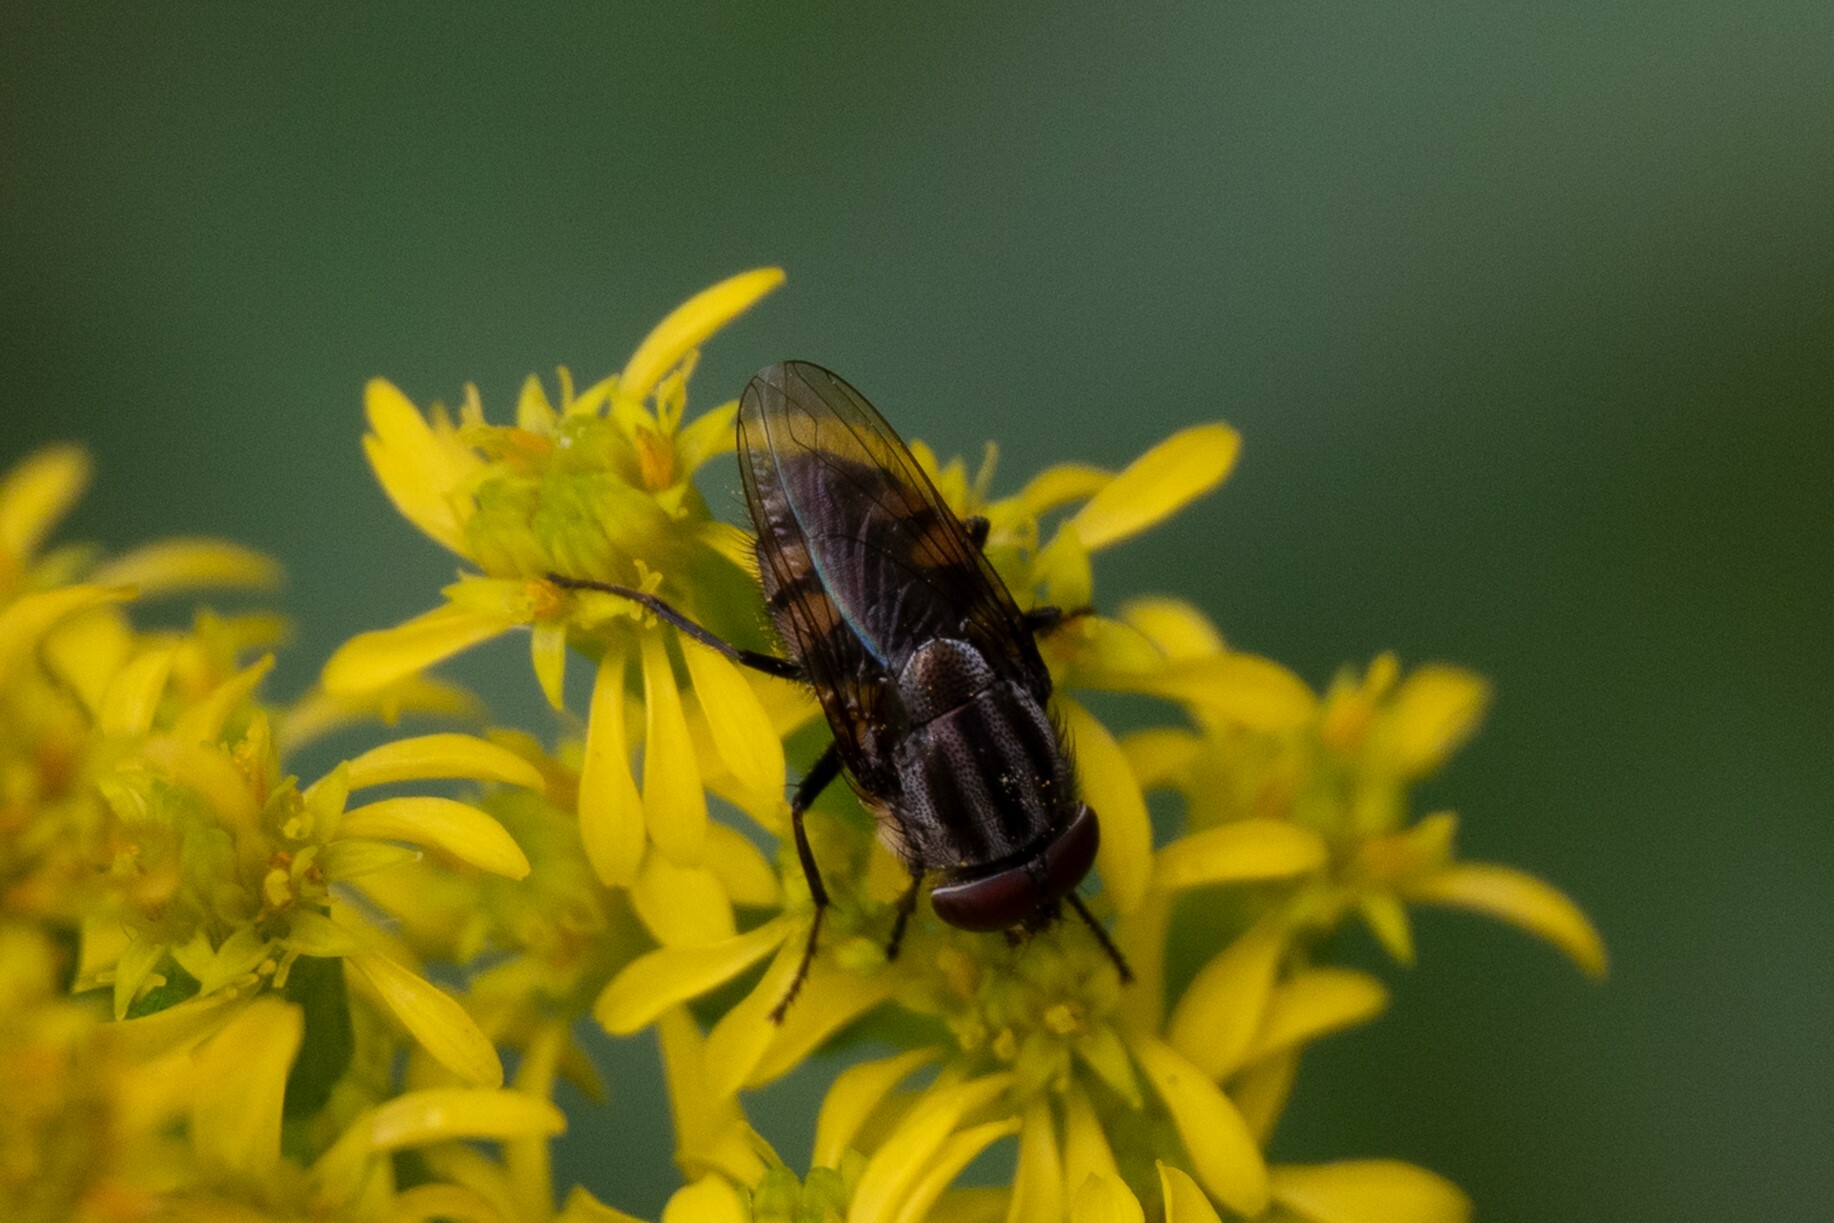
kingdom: Animalia
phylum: Arthropoda
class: Insecta
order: Diptera
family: Calliphoridae
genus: Stomorhina
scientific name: Stomorhina lunata
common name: Locust blowfly
